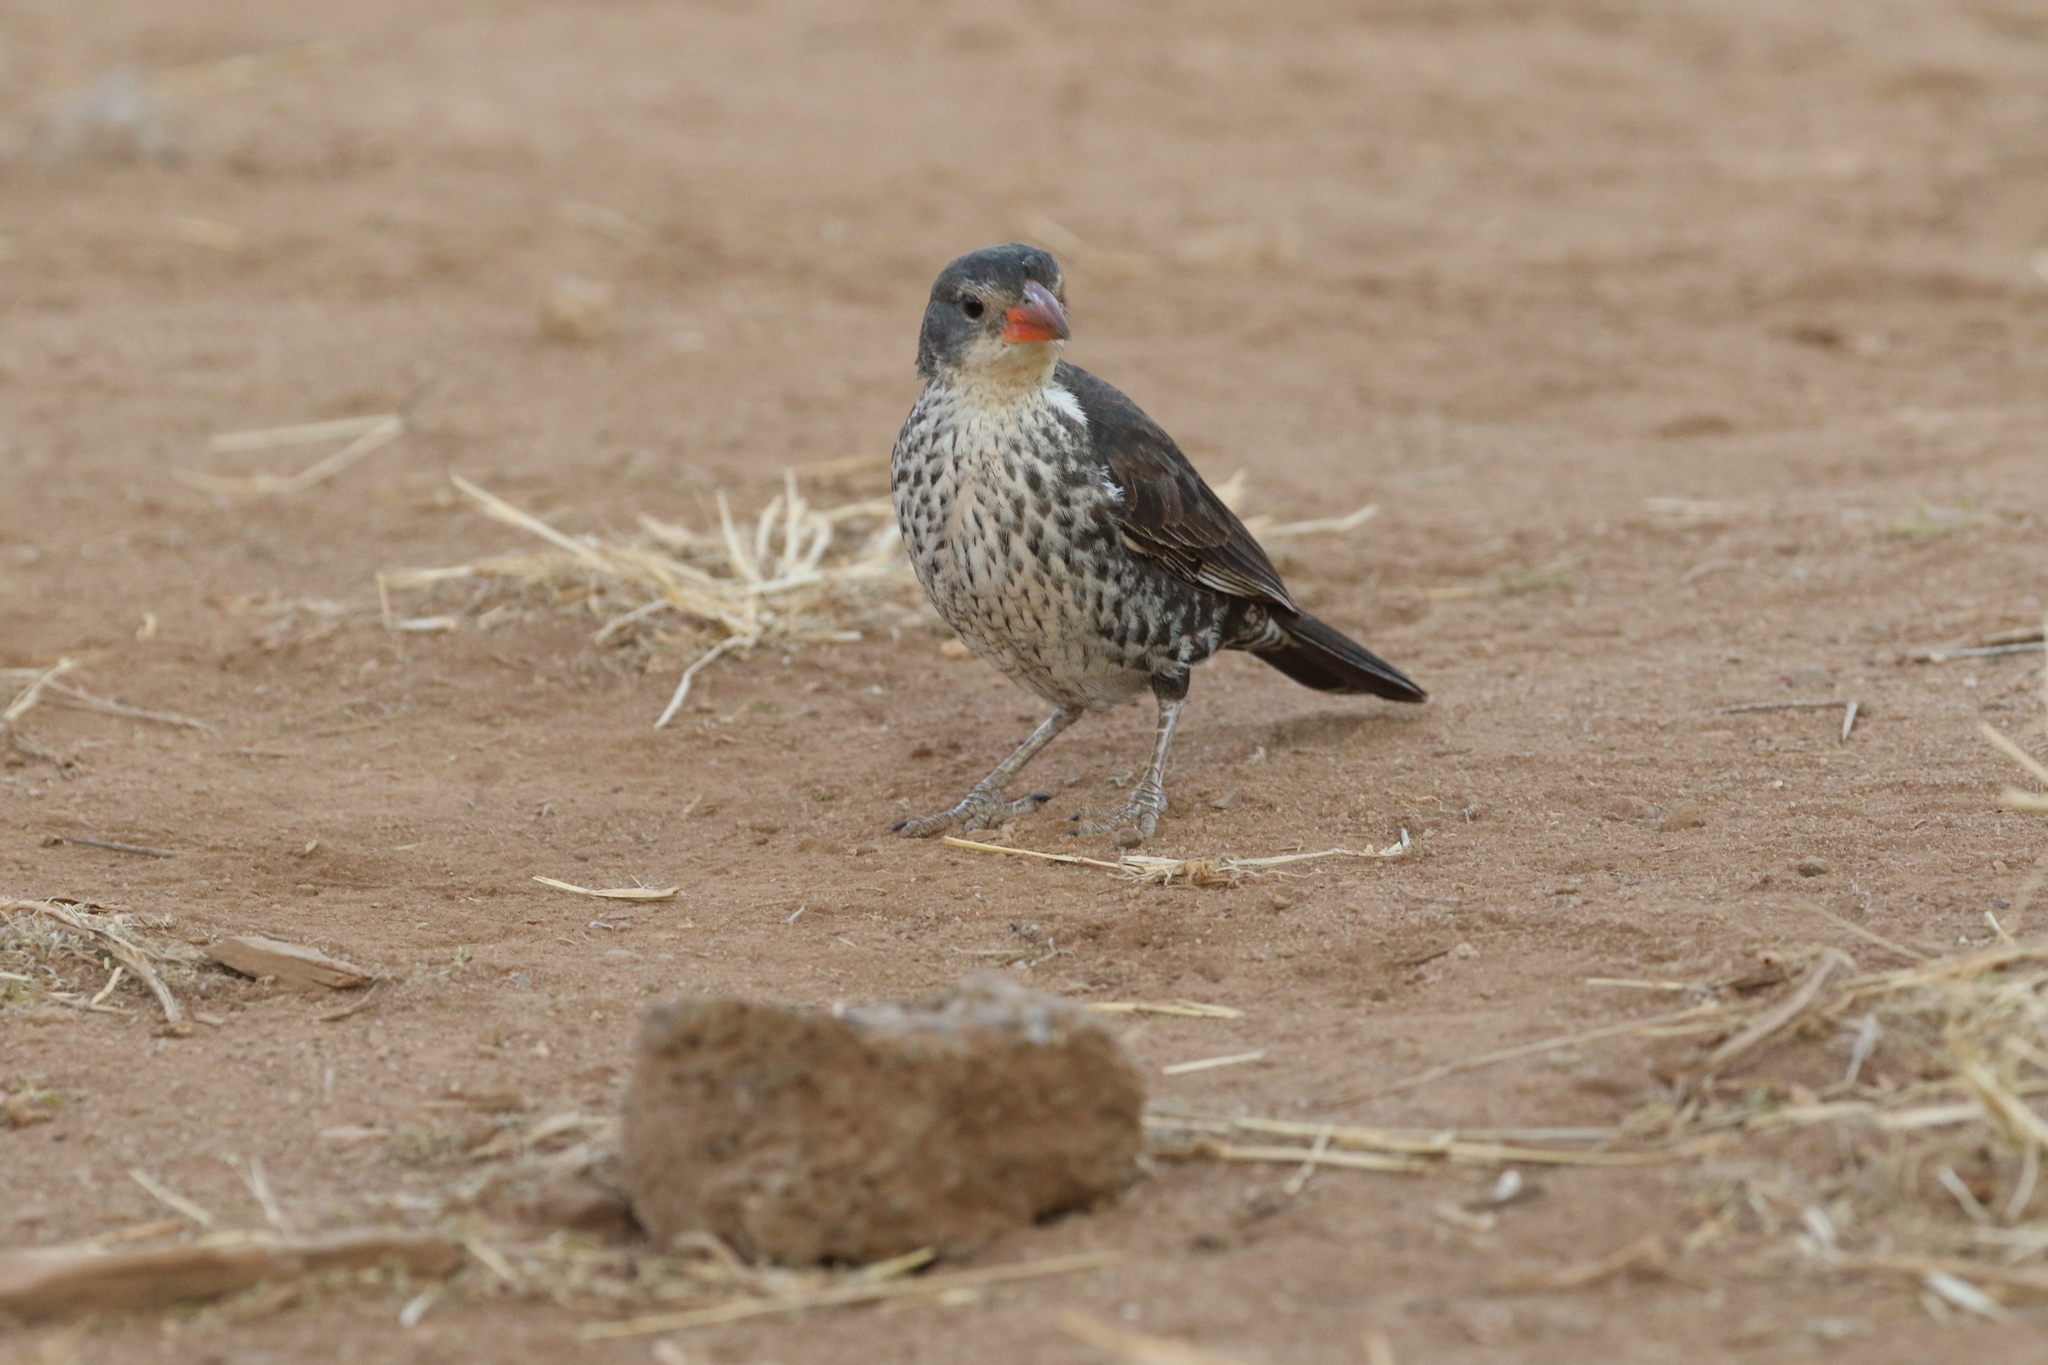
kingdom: Animalia
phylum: Chordata
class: Aves
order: Passeriformes
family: Ploceidae
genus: Bubalornis
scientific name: Bubalornis niger
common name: Red-billed buffalo weaver
